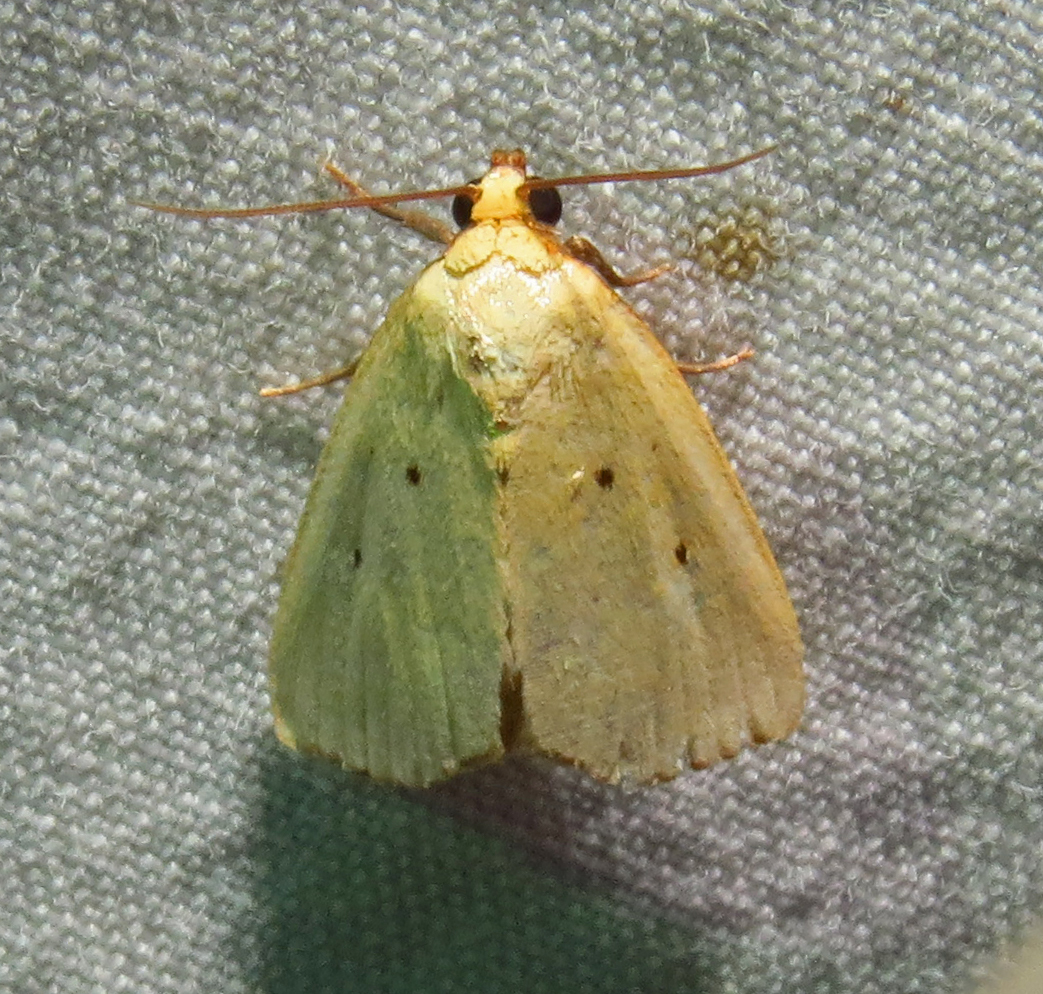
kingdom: Animalia
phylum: Arthropoda
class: Insecta
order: Lepidoptera
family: Noctuidae
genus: Marimatha
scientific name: Marimatha nigrofimbria
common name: Black-bordered lemon moth
